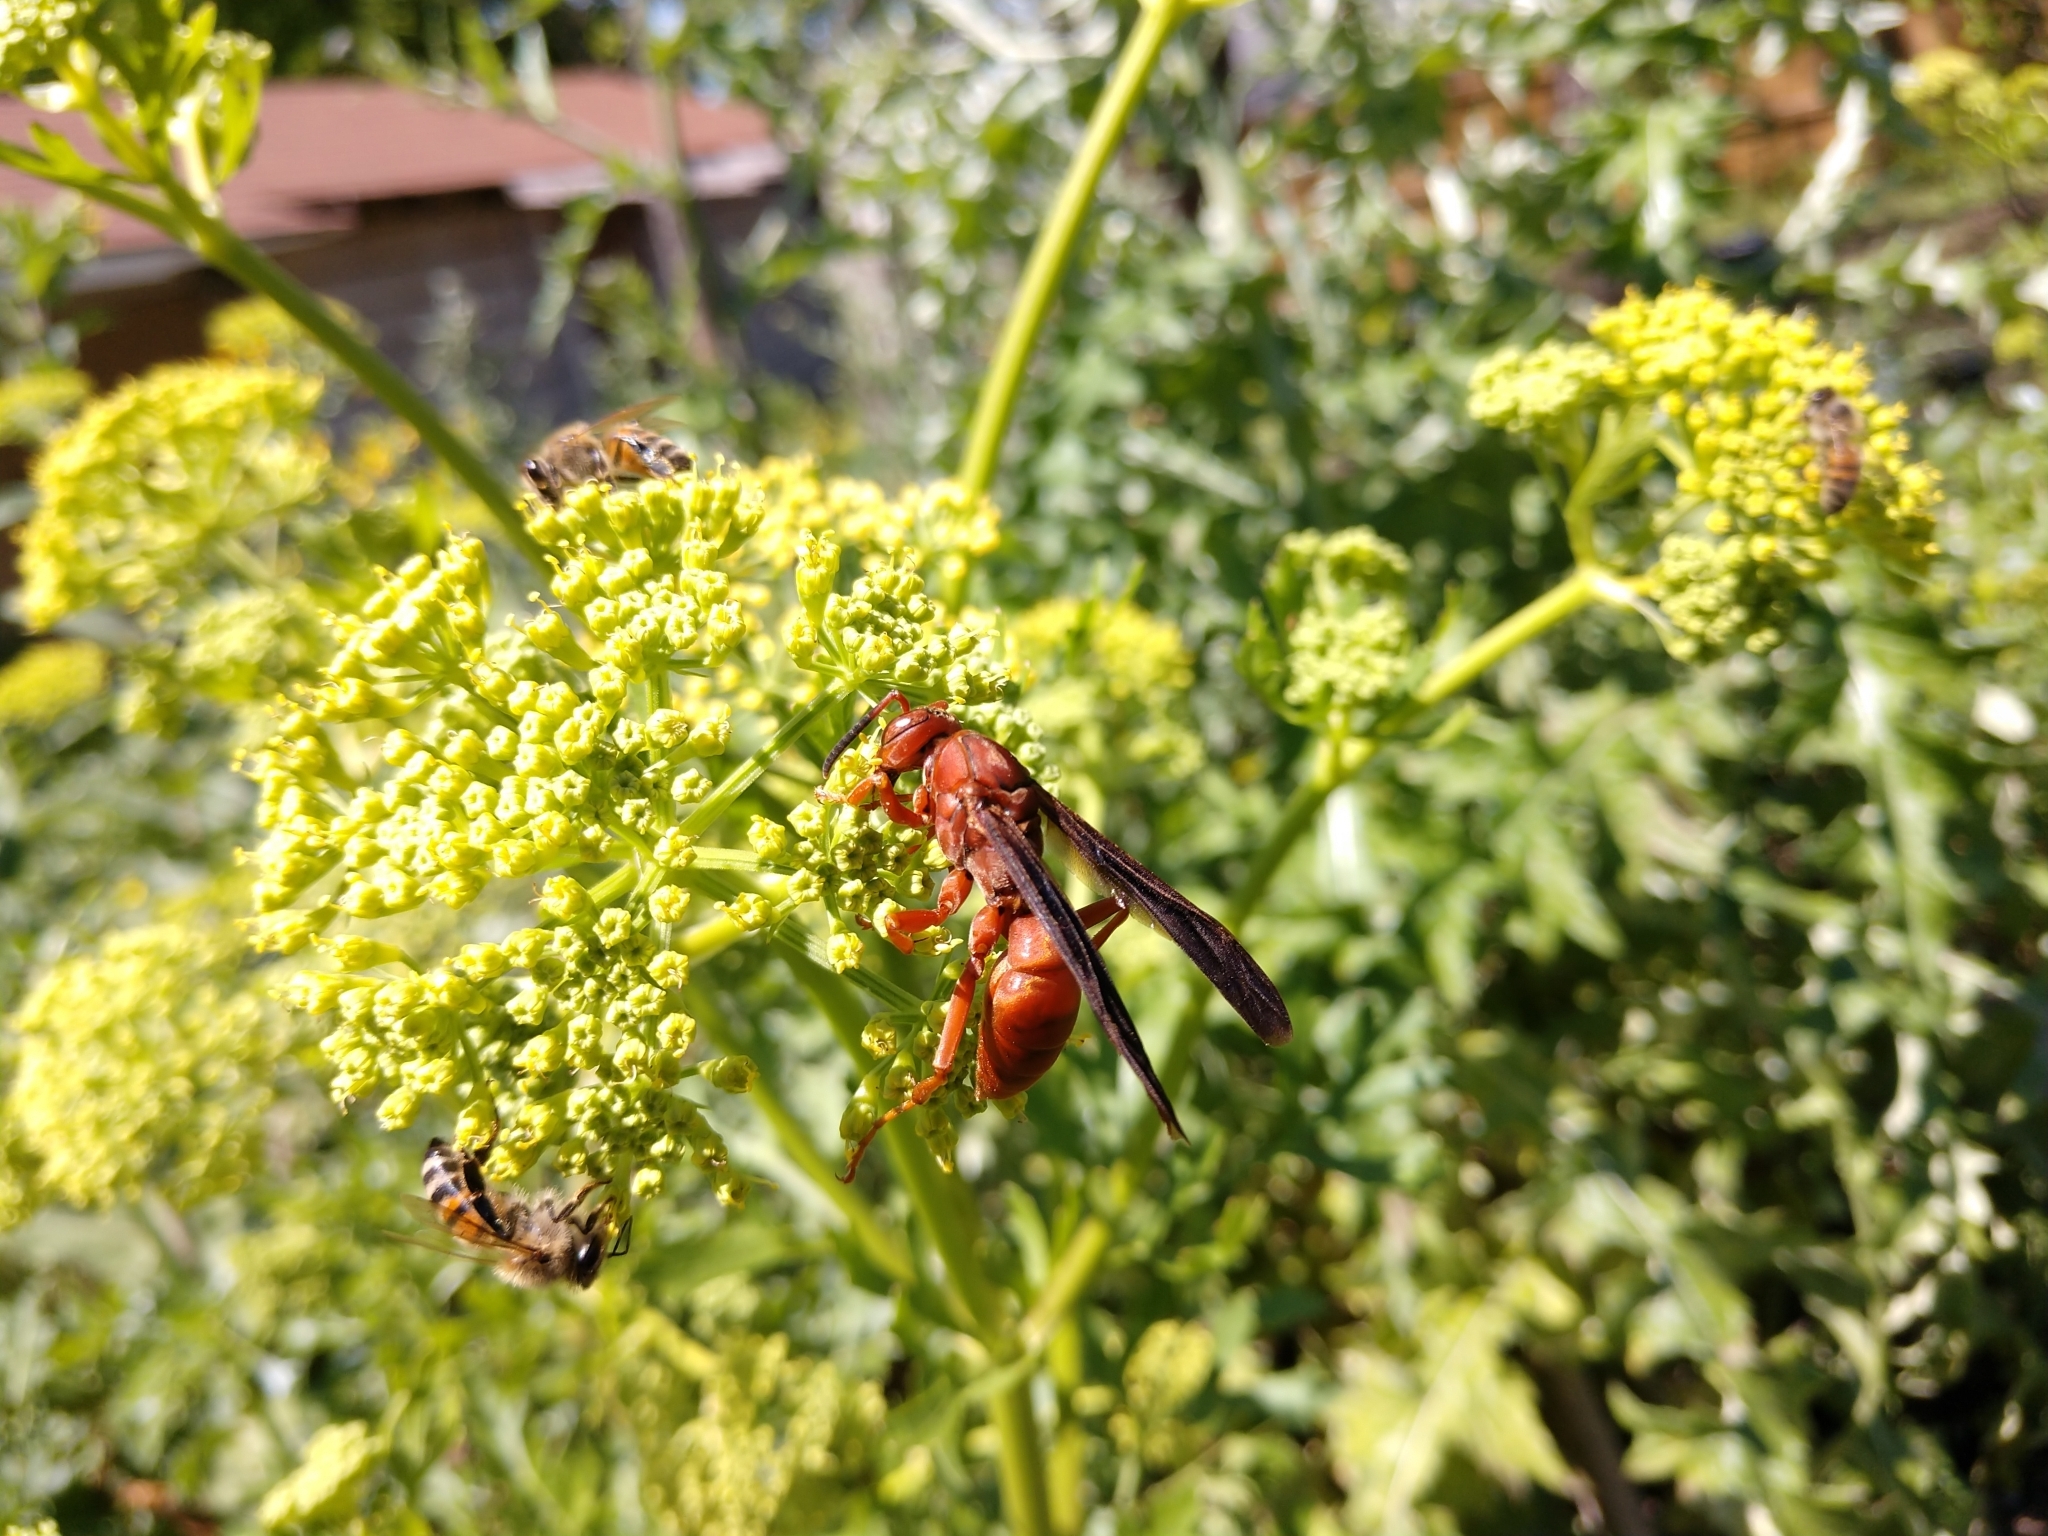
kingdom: Animalia
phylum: Arthropoda
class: Insecta
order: Hymenoptera
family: Vespidae
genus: Fuscopolistes
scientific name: Fuscopolistes
